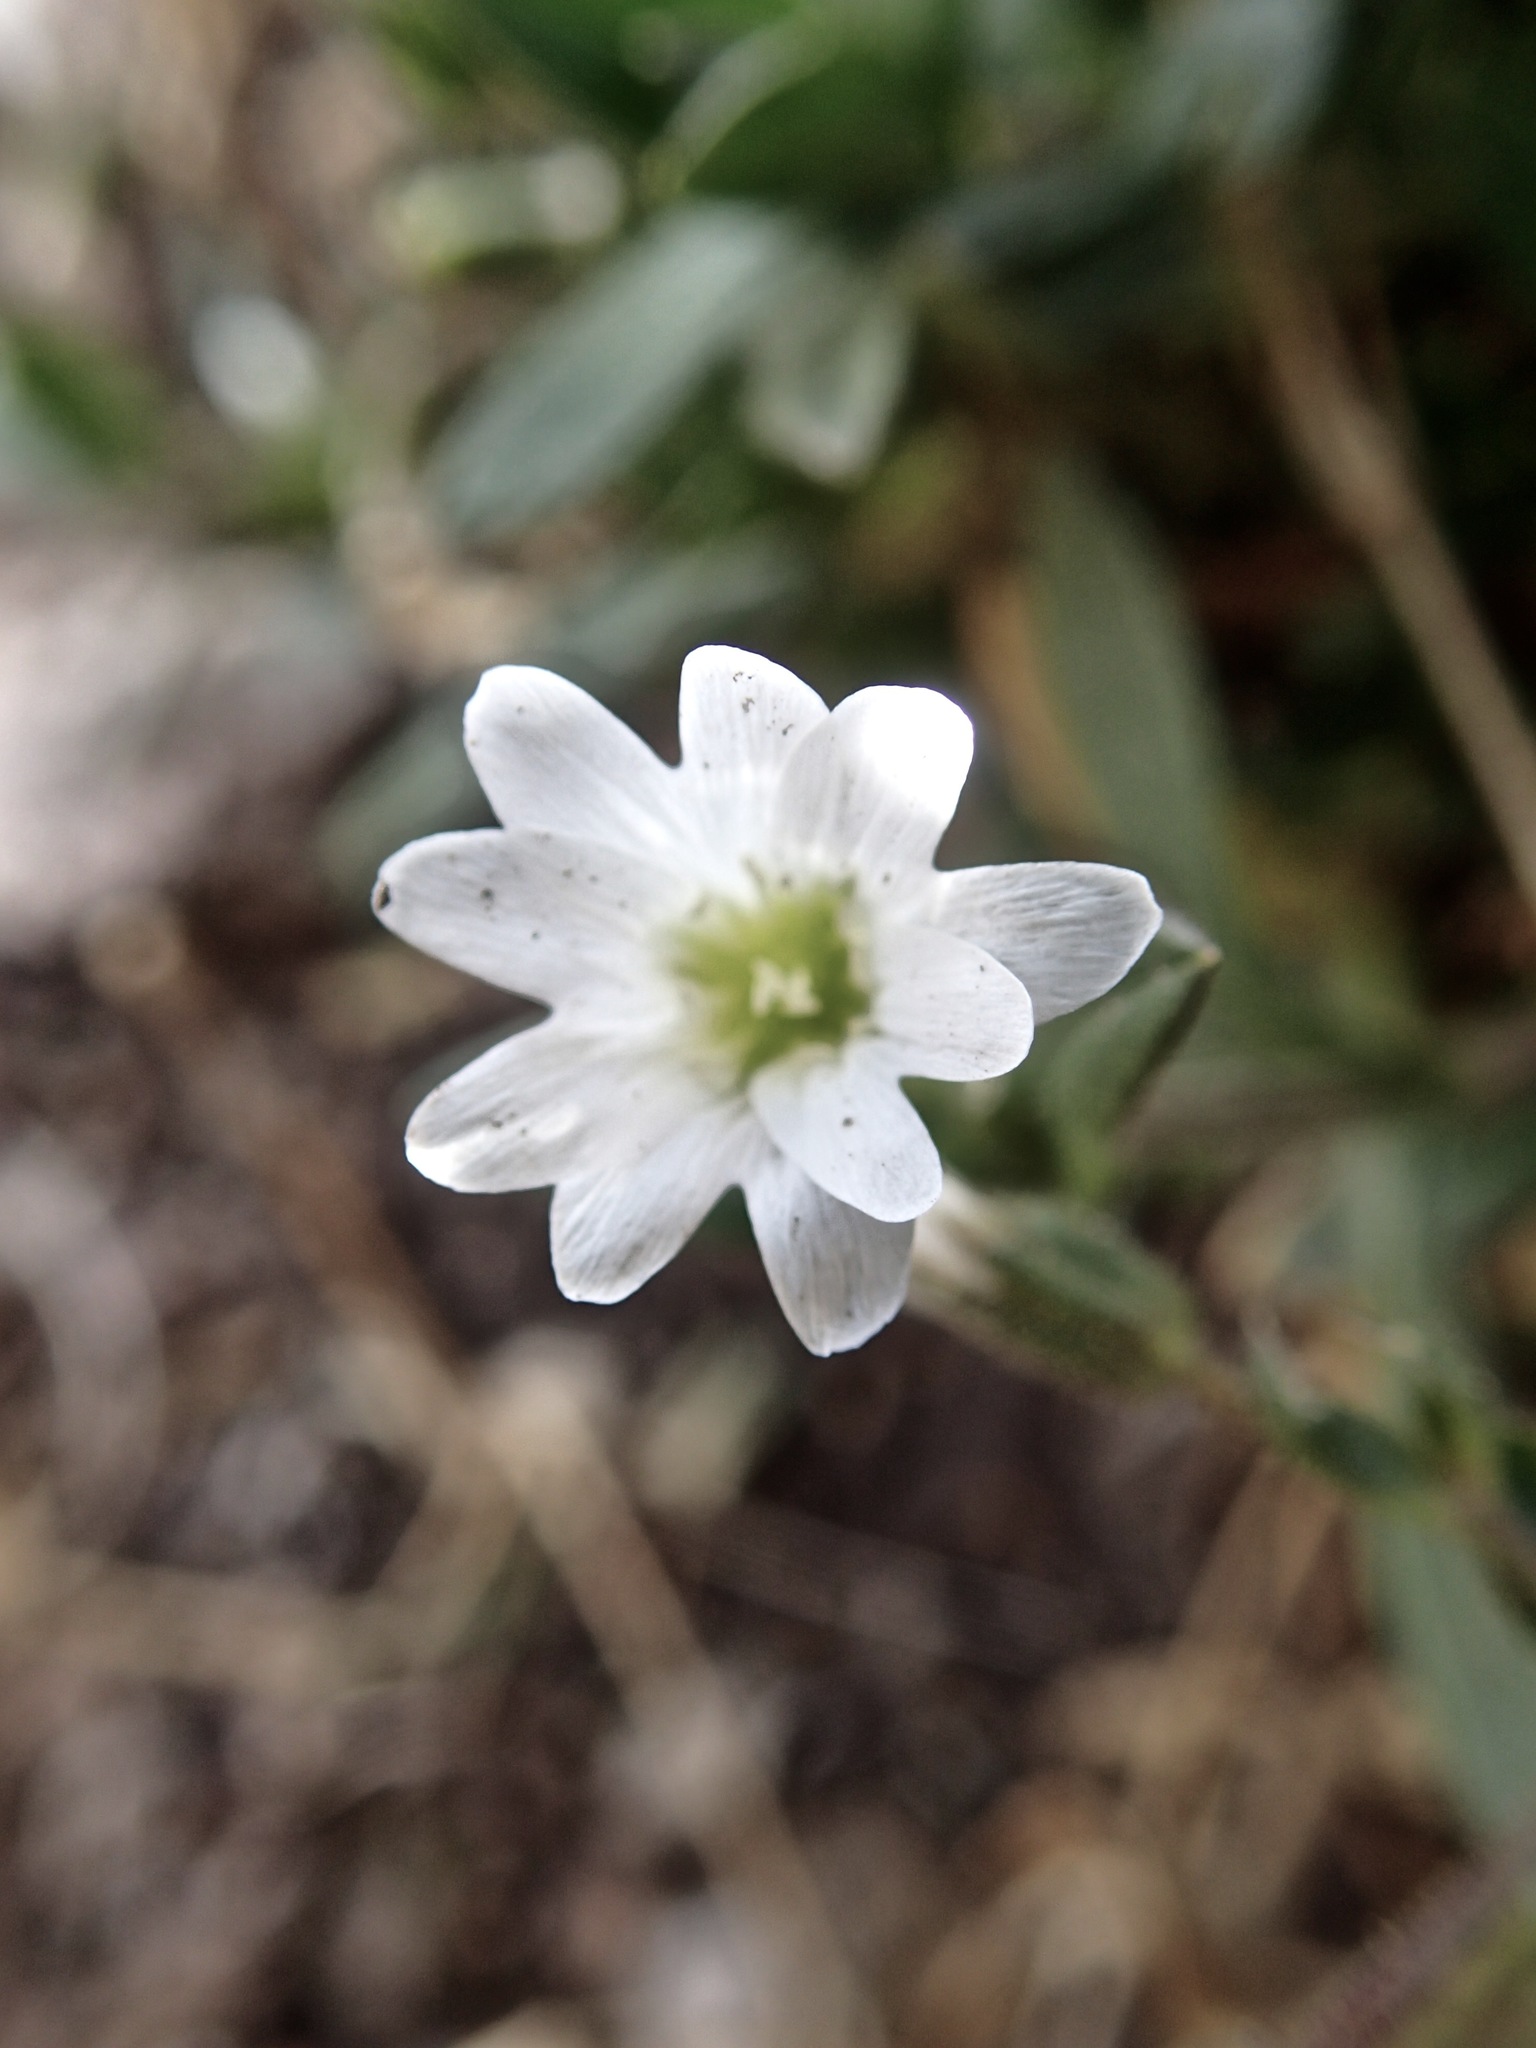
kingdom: Plantae
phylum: Tracheophyta
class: Magnoliopsida
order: Caryophyllales
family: Caryophyllaceae
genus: Cerastium
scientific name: Cerastium beeringianum
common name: Bering mouse-ear chickweed
